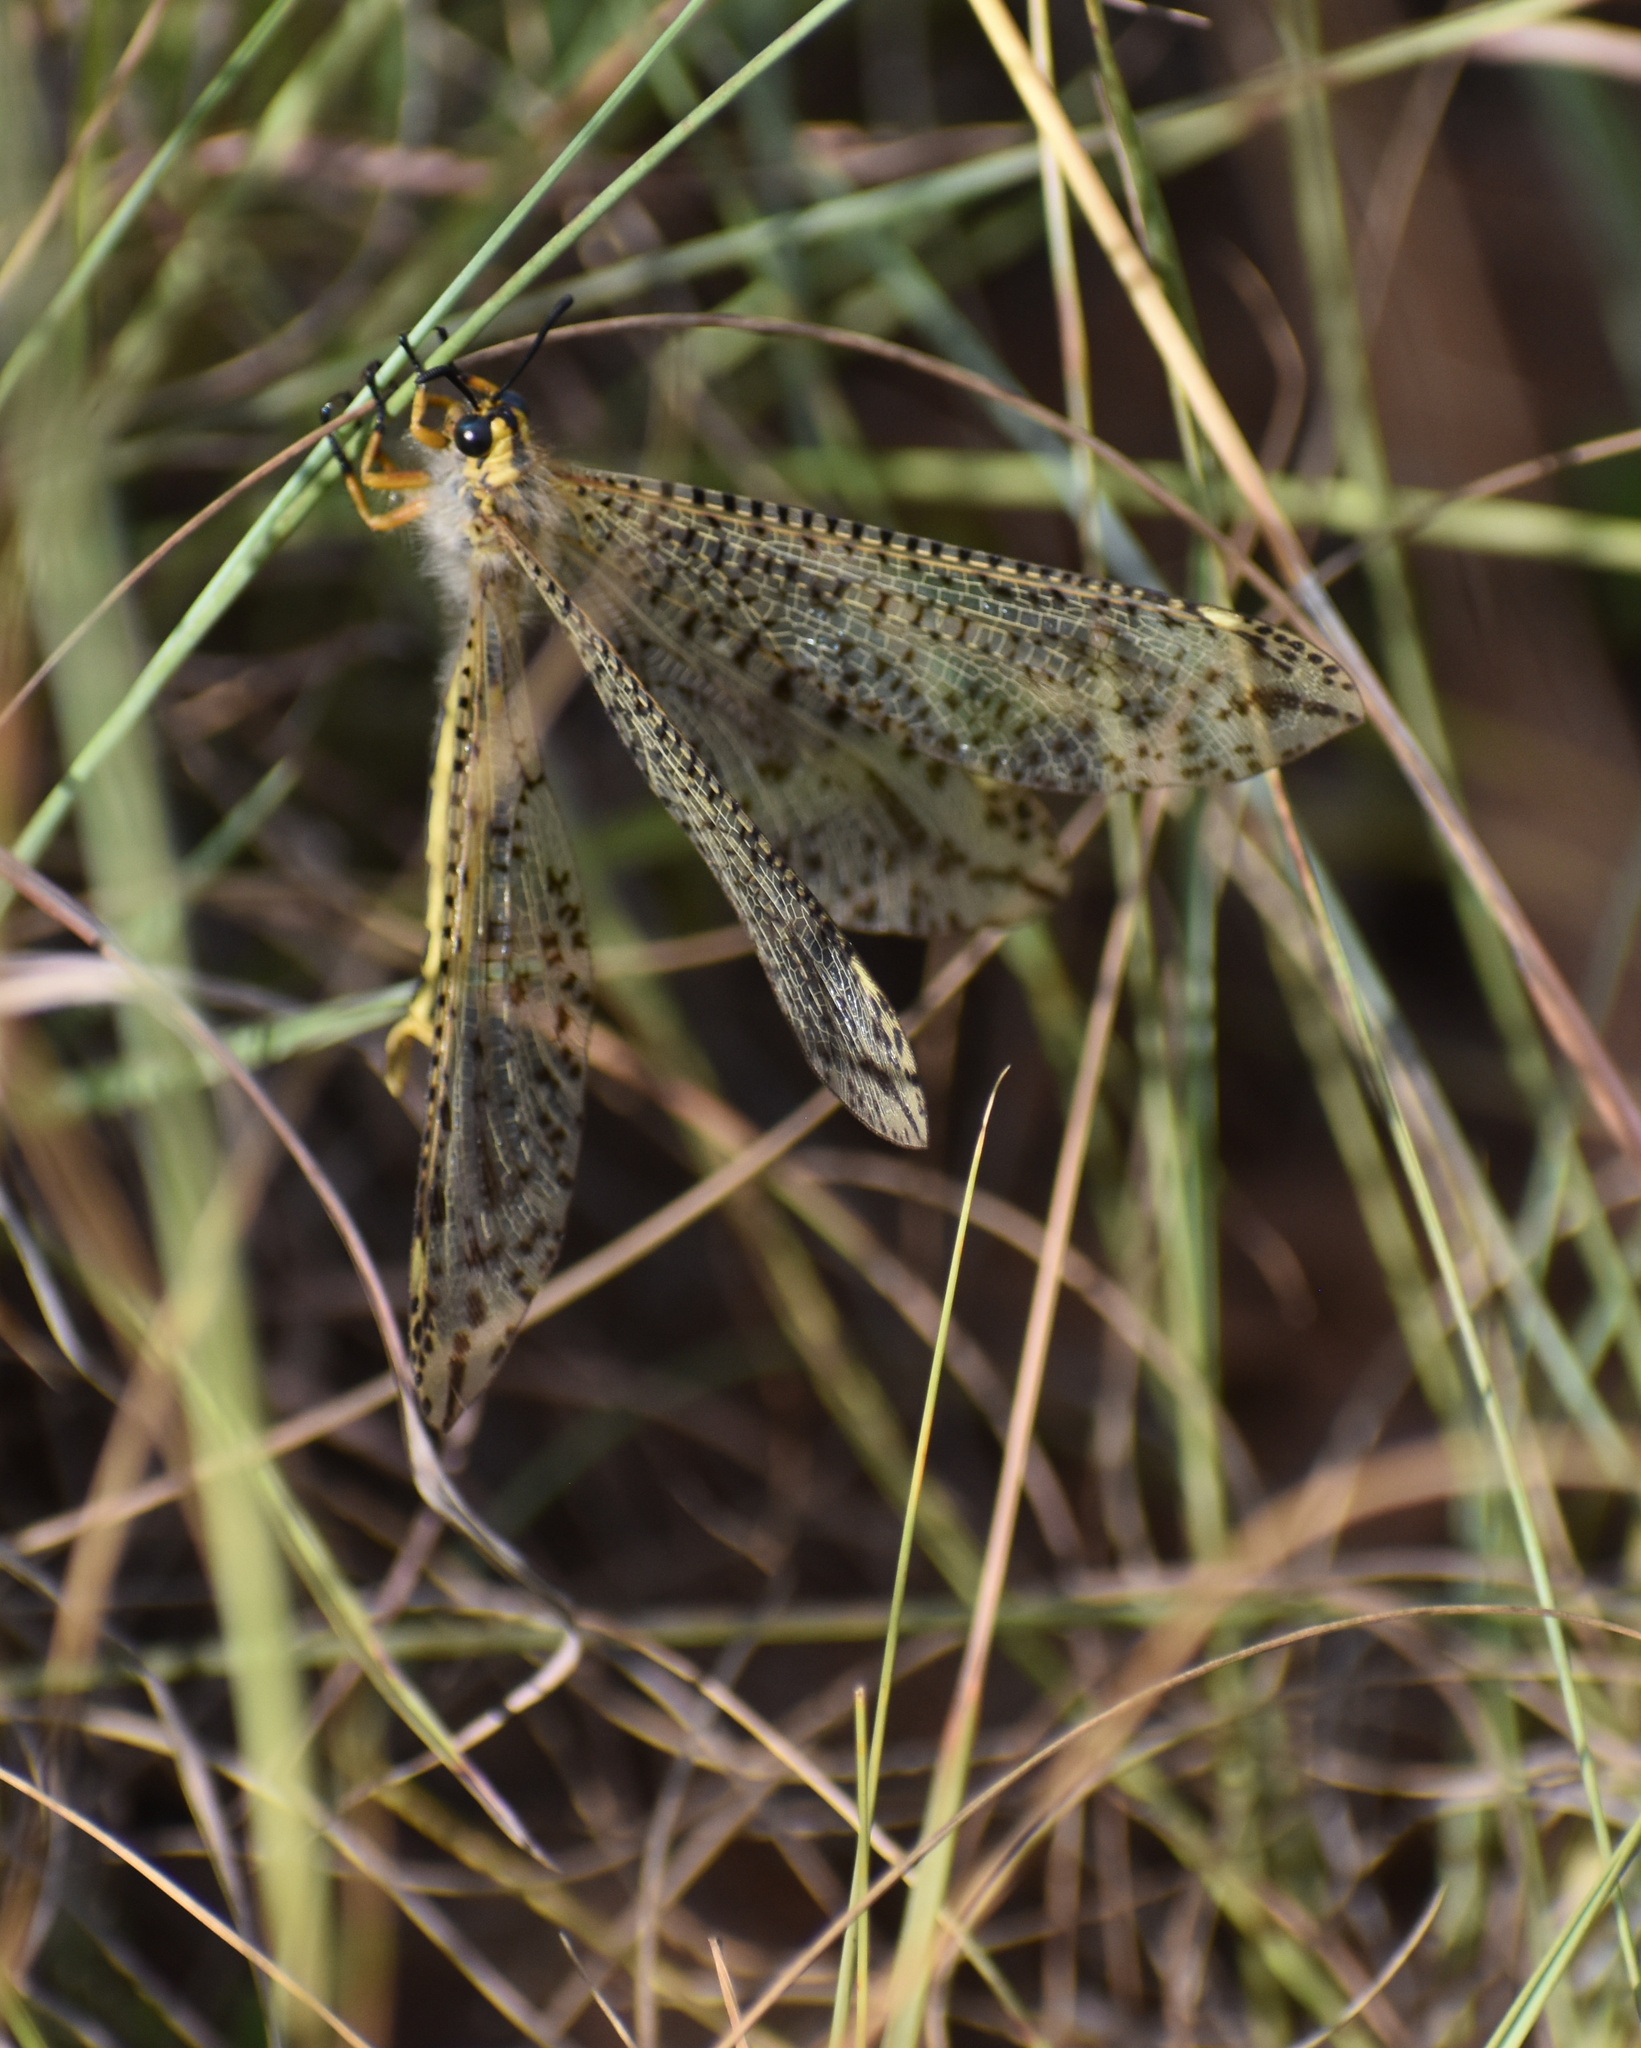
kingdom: Animalia
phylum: Arthropoda
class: Insecta
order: Neuroptera
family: Myrmeleontidae
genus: Palpares
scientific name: Palpares sobrinus
